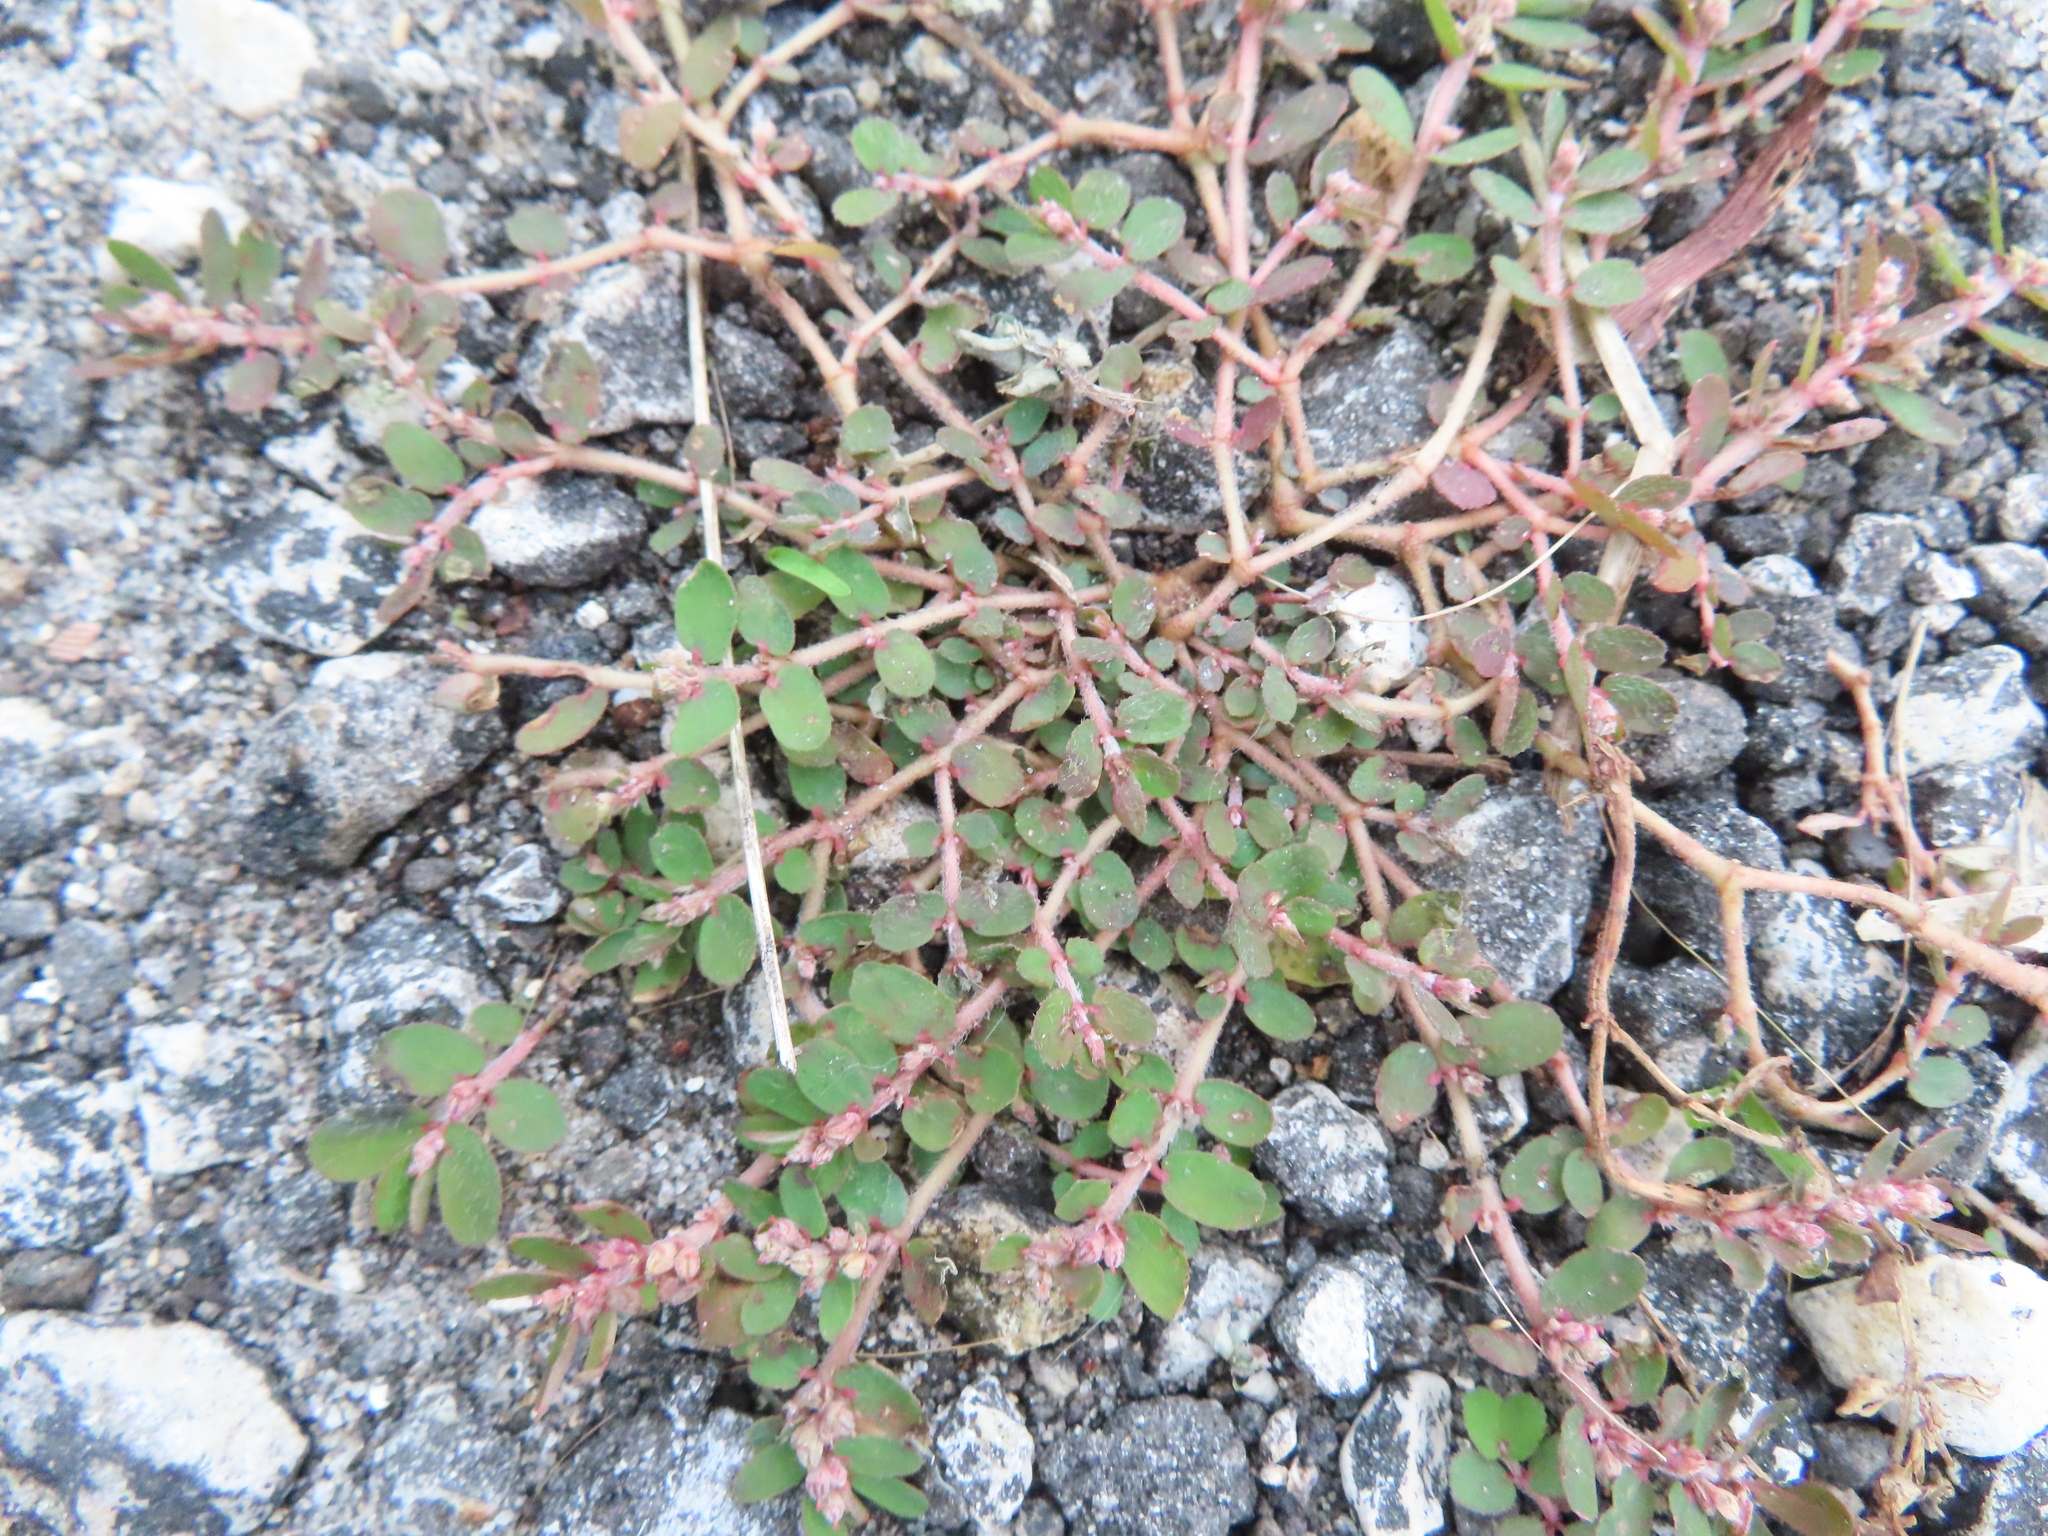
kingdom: Plantae
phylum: Tracheophyta
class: Magnoliopsida
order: Malpighiales
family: Euphorbiaceae
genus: Euphorbia
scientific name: Euphorbia thymifolia
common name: Gulf sandmat
